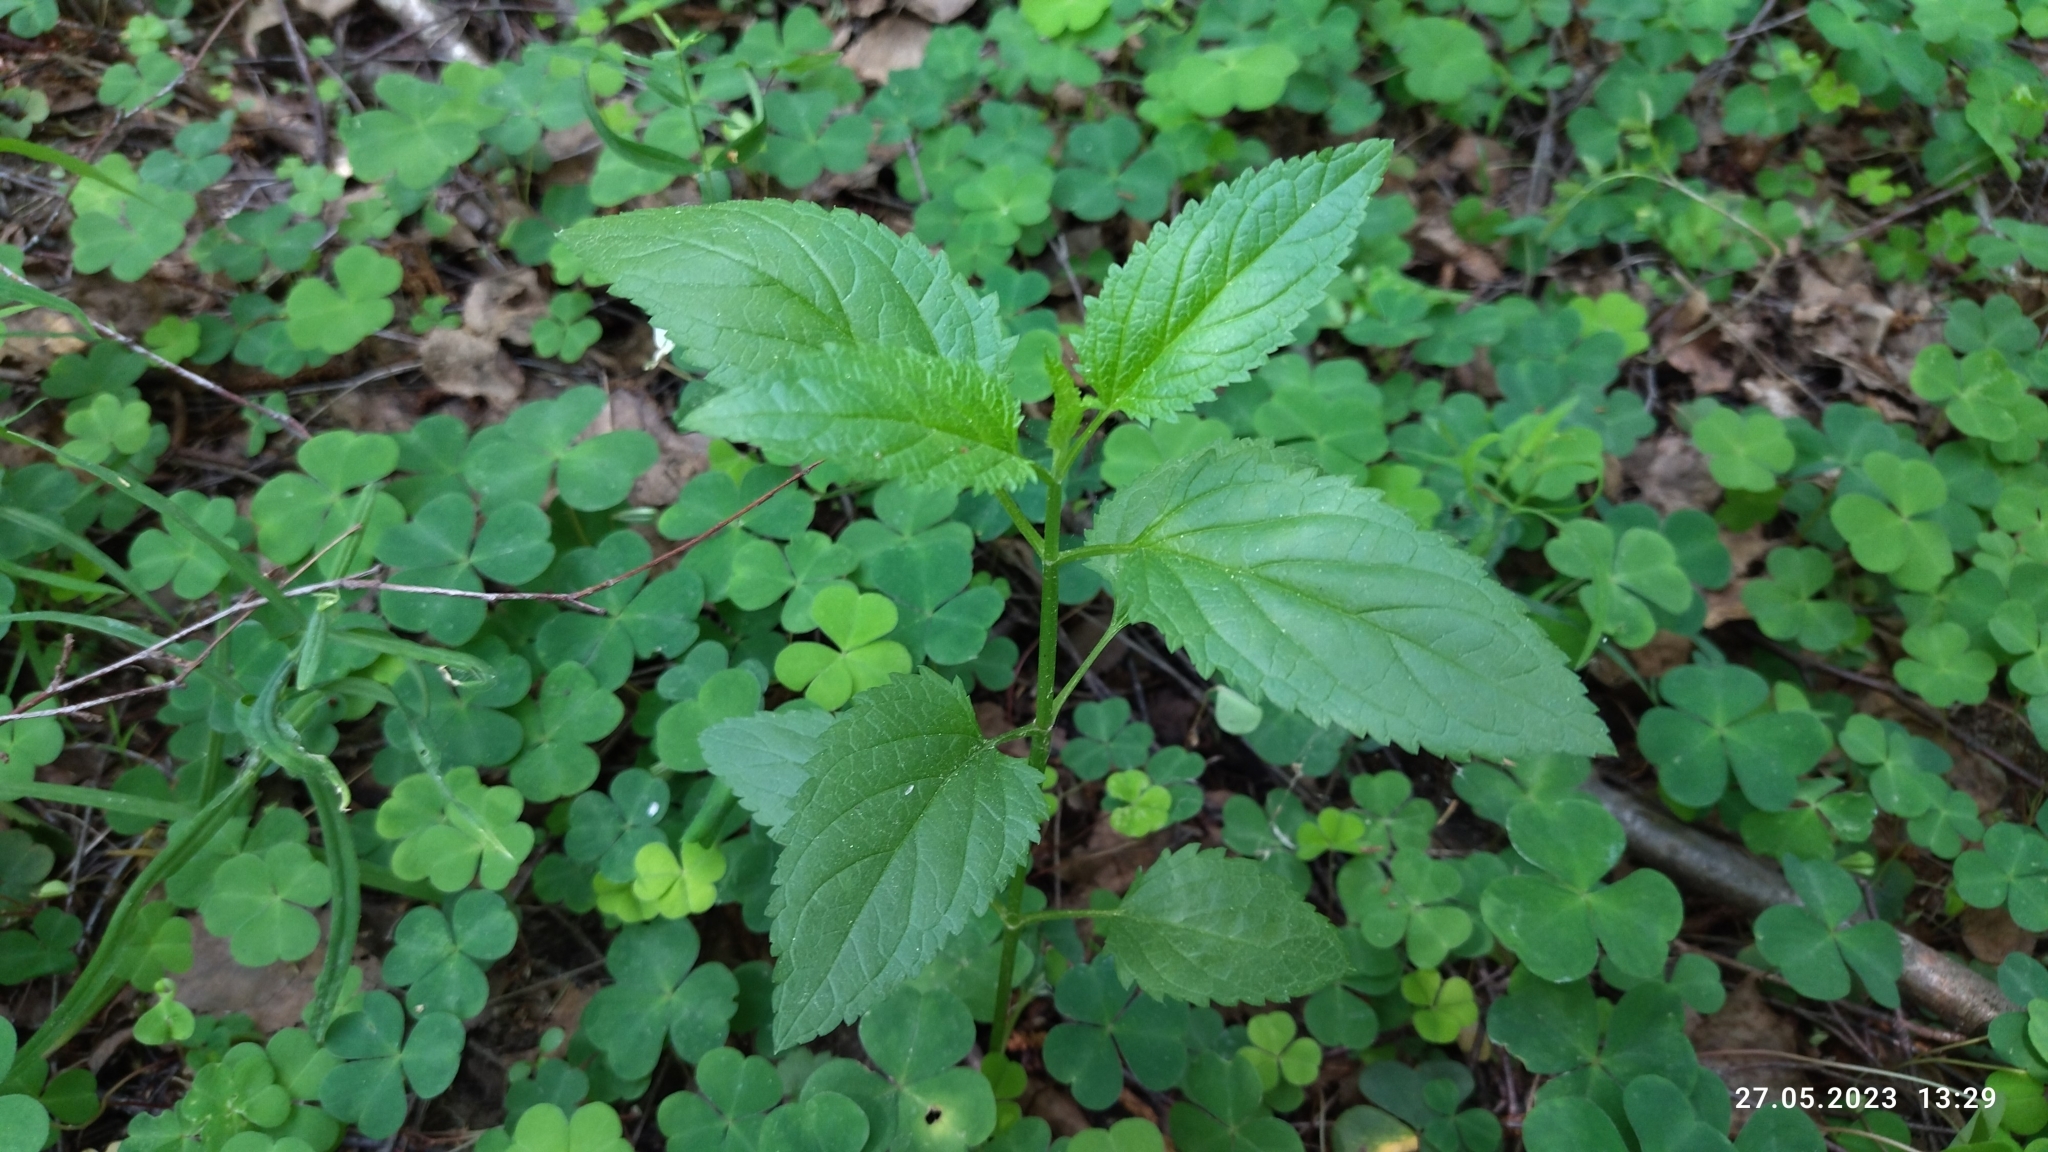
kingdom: Plantae
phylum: Tracheophyta
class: Magnoliopsida
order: Lamiales
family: Scrophulariaceae
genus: Scrophularia
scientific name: Scrophularia nodosa
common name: Common figwort
